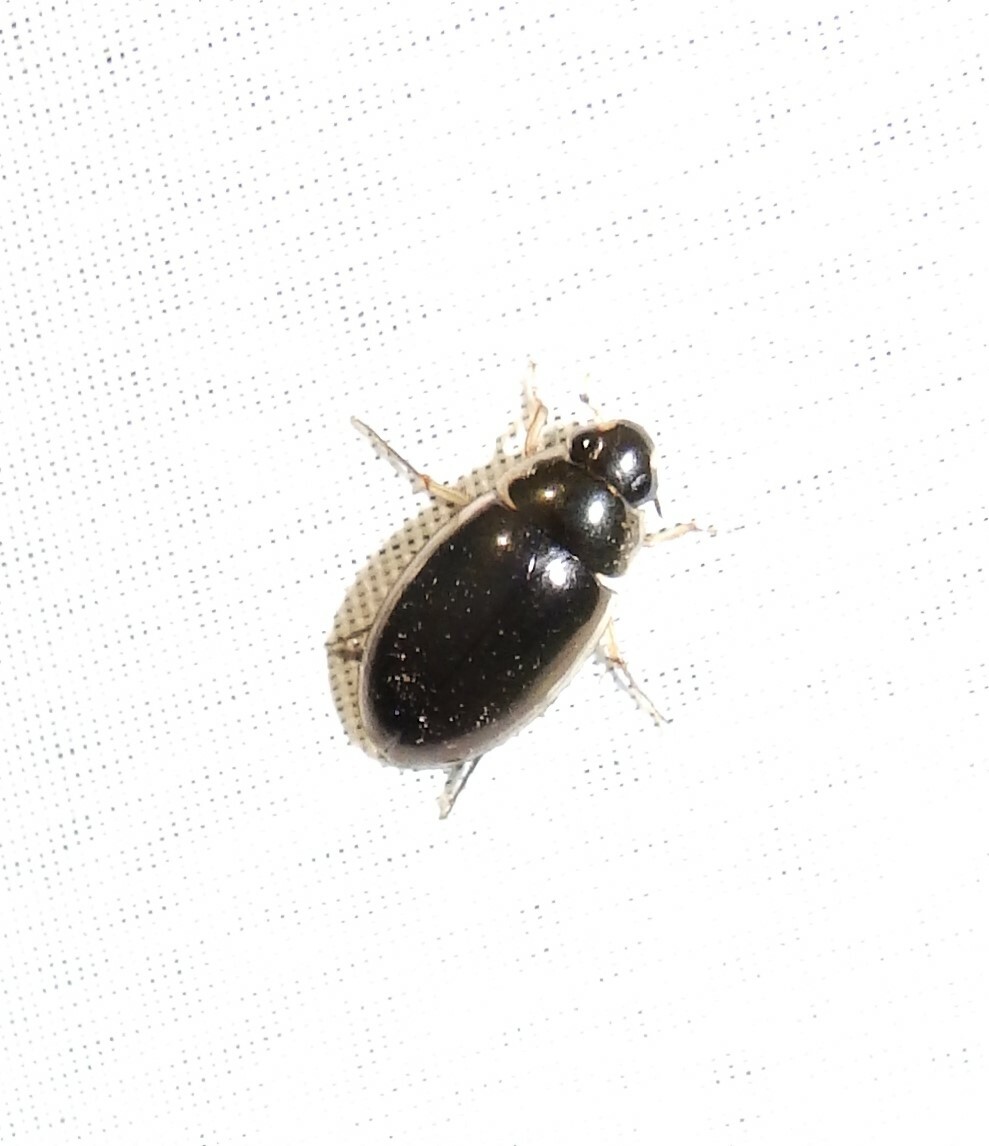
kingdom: Animalia
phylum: Arthropoda
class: Insecta
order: Coleoptera
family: Hydrophilidae
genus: Tropisternus
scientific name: Tropisternus lateralis
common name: Lateral-banded water scavenger beetle
